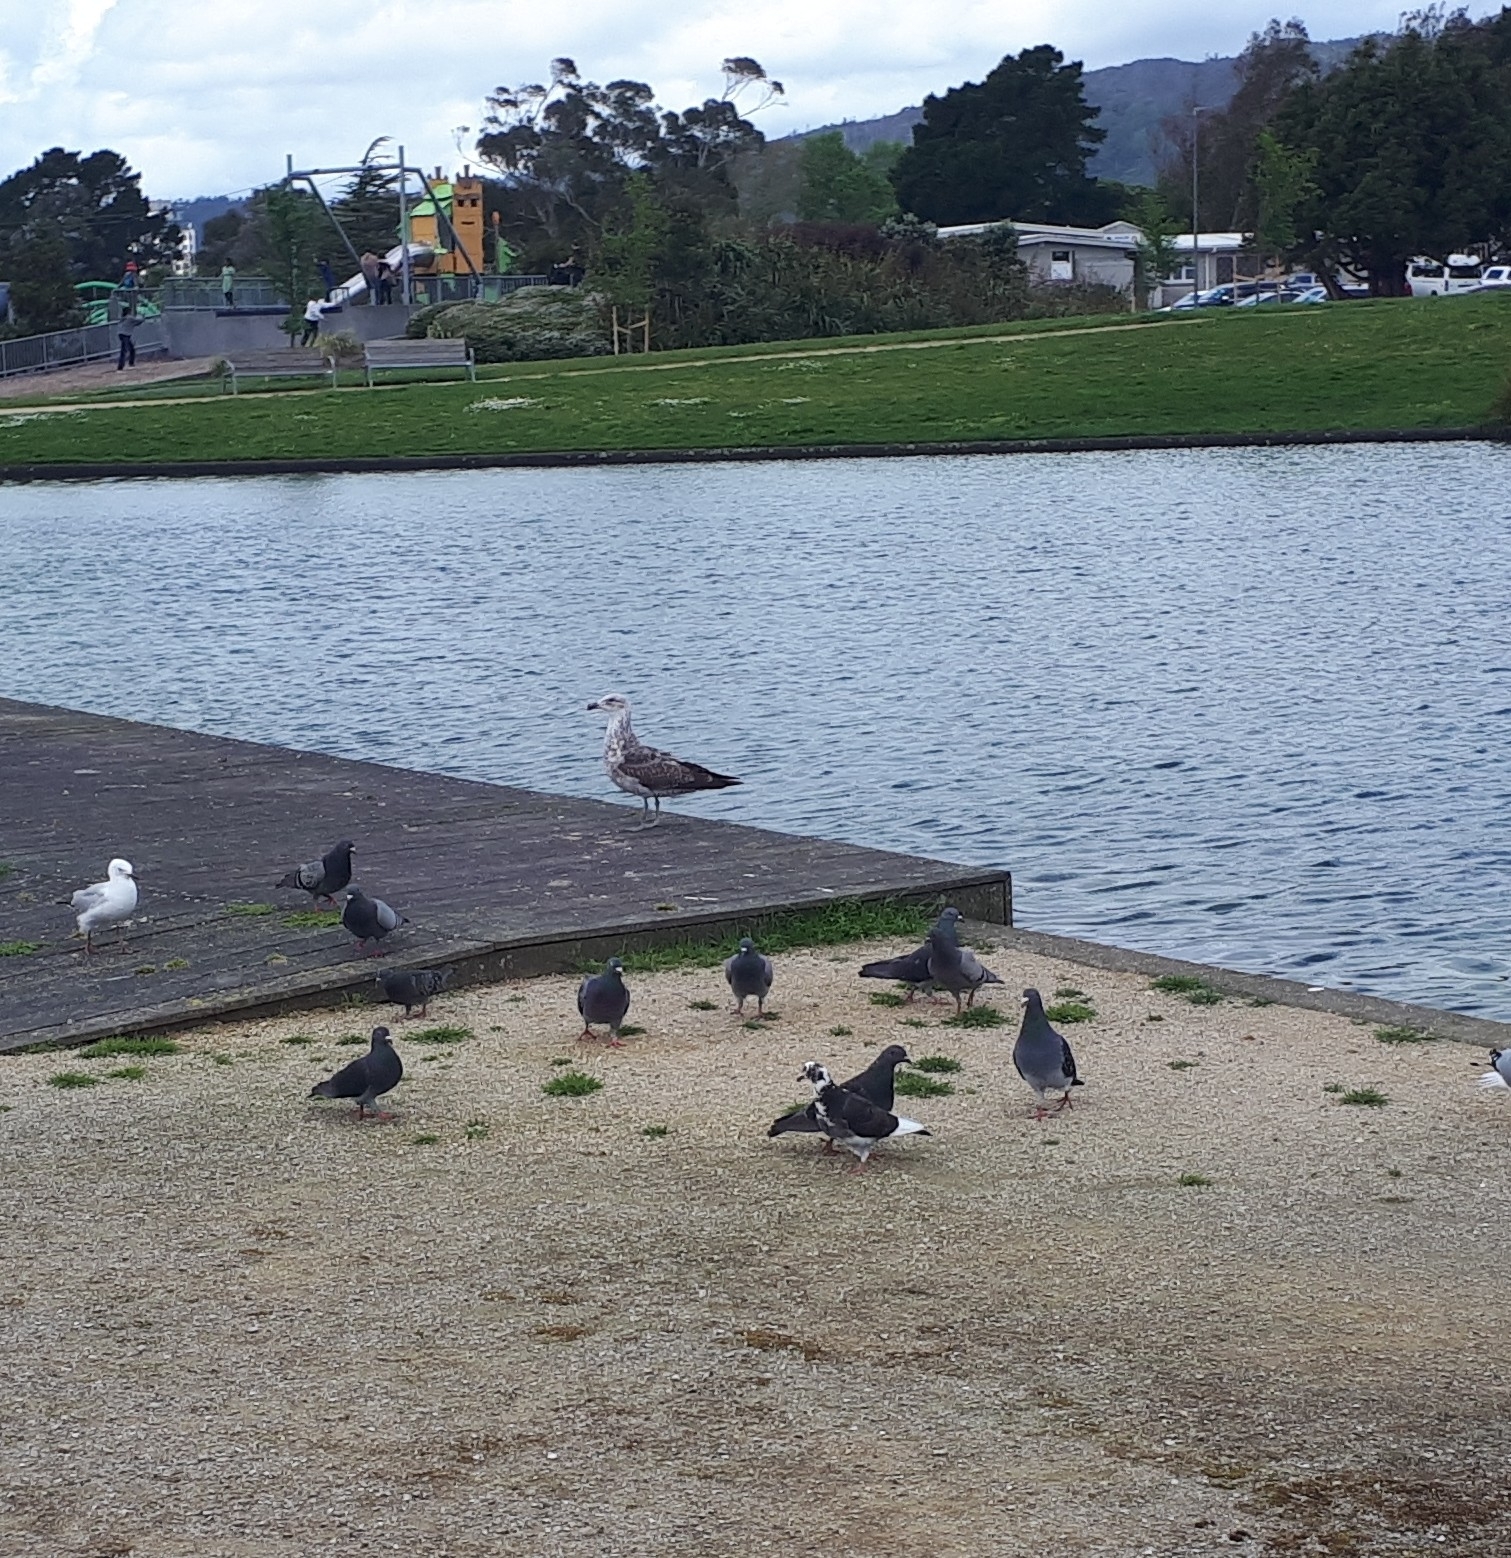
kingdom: Animalia
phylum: Chordata
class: Aves
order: Charadriiformes
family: Laridae
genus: Larus
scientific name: Larus dominicanus
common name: Kelp gull
